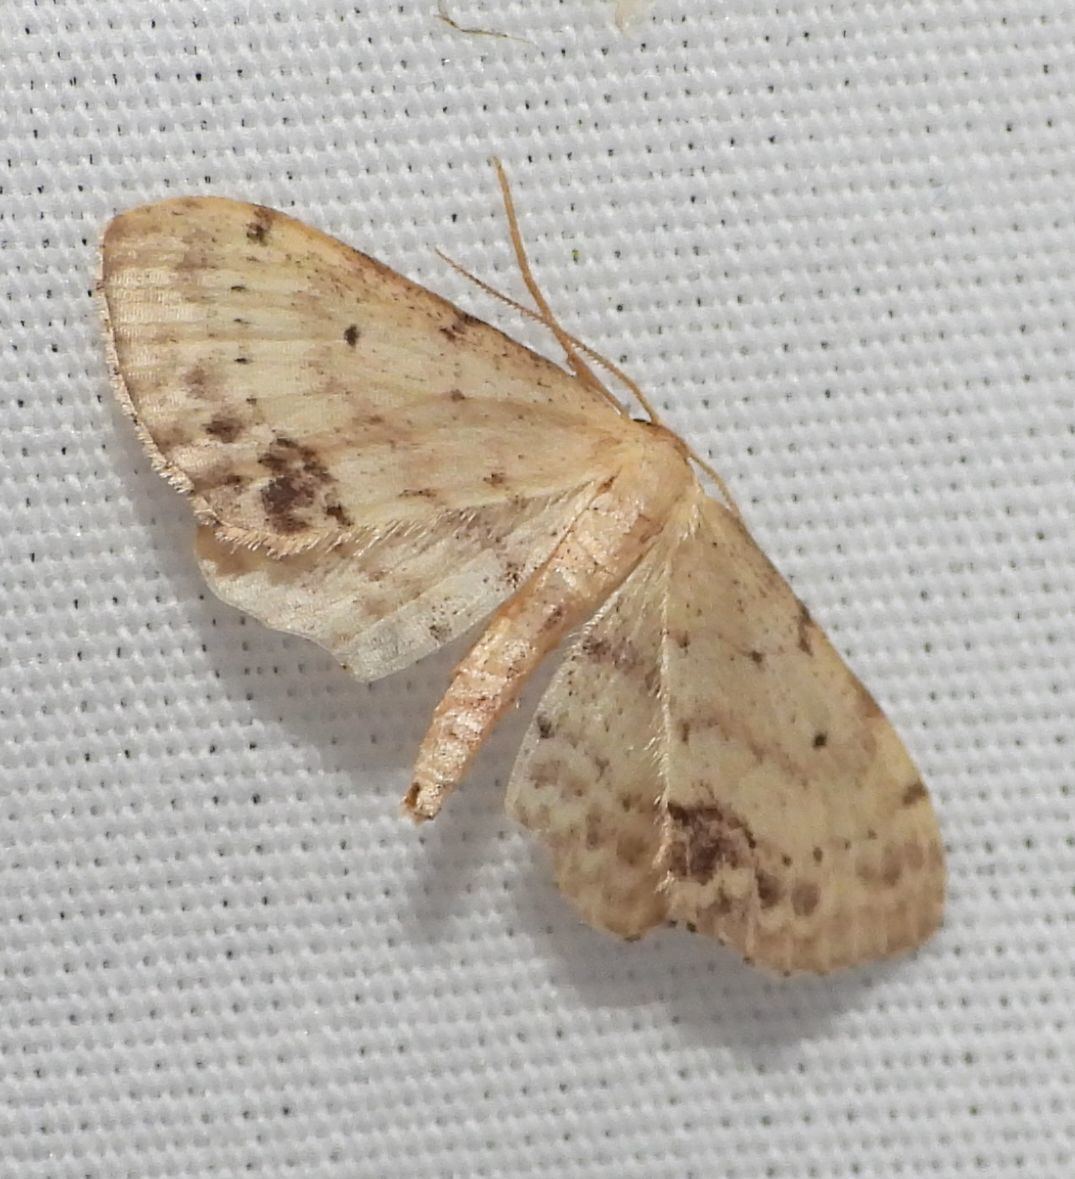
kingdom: Animalia
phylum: Arthropoda
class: Insecta
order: Lepidoptera
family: Geometridae
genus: Idaea
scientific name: Idaea dimidiata
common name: Single-dotted wave
